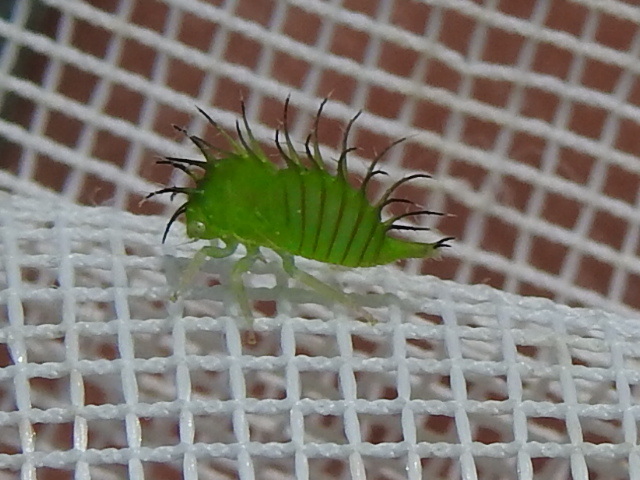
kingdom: Animalia
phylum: Arthropoda
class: Insecta
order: Hemiptera
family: Membracidae
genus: Stictocephala
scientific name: Stictocephala alta
